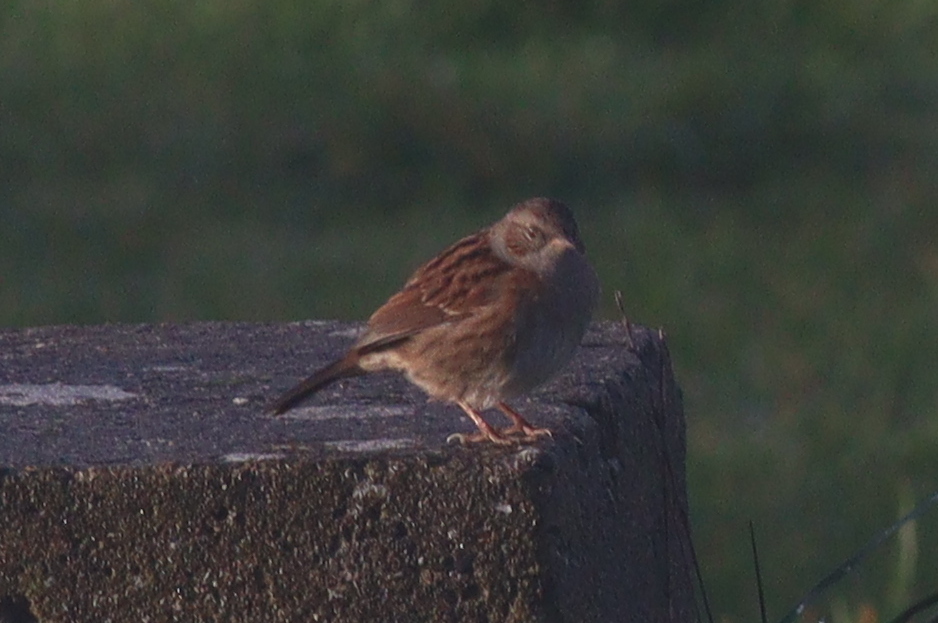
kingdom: Animalia
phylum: Chordata
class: Aves
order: Passeriformes
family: Prunellidae
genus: Prunella
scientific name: Prunella modularis
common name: Dunnock
